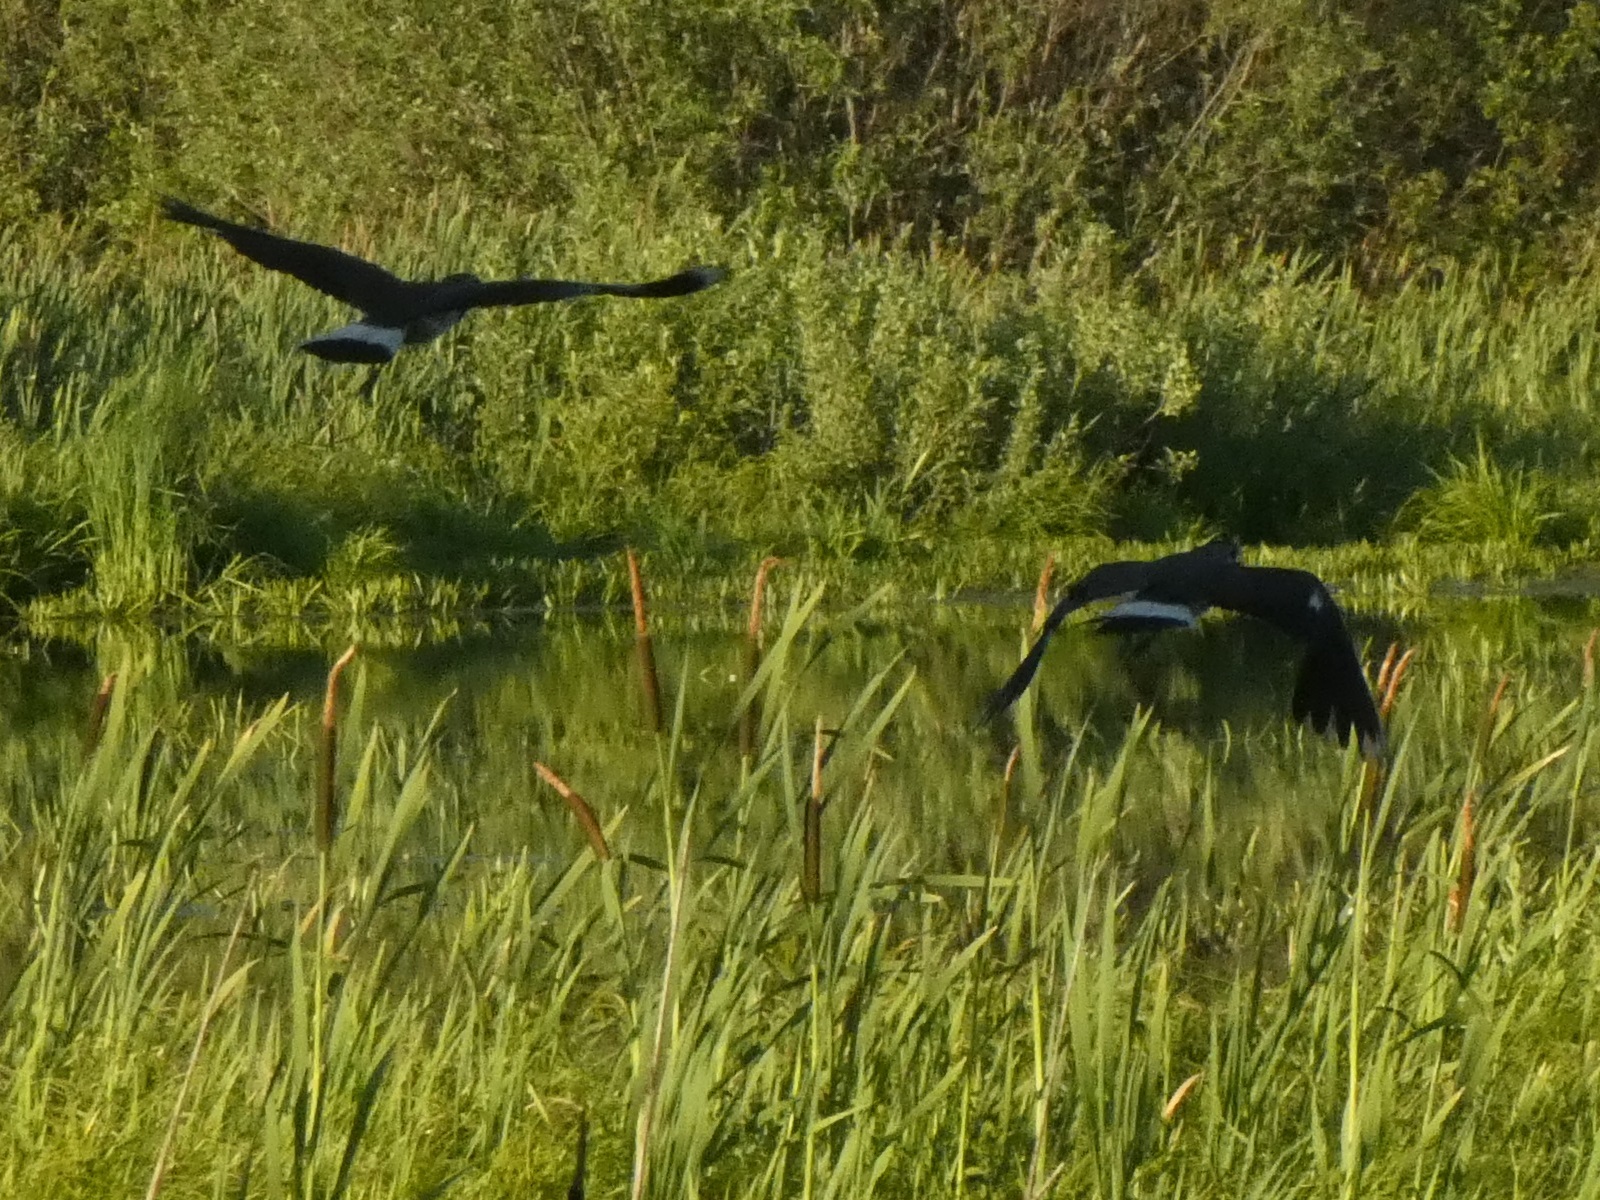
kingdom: Animalia
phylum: Chordata
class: Aves
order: Charadriiformes
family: Charadriidae
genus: Vanellus
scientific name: Vanellus vanellus
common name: Northern lapwing
